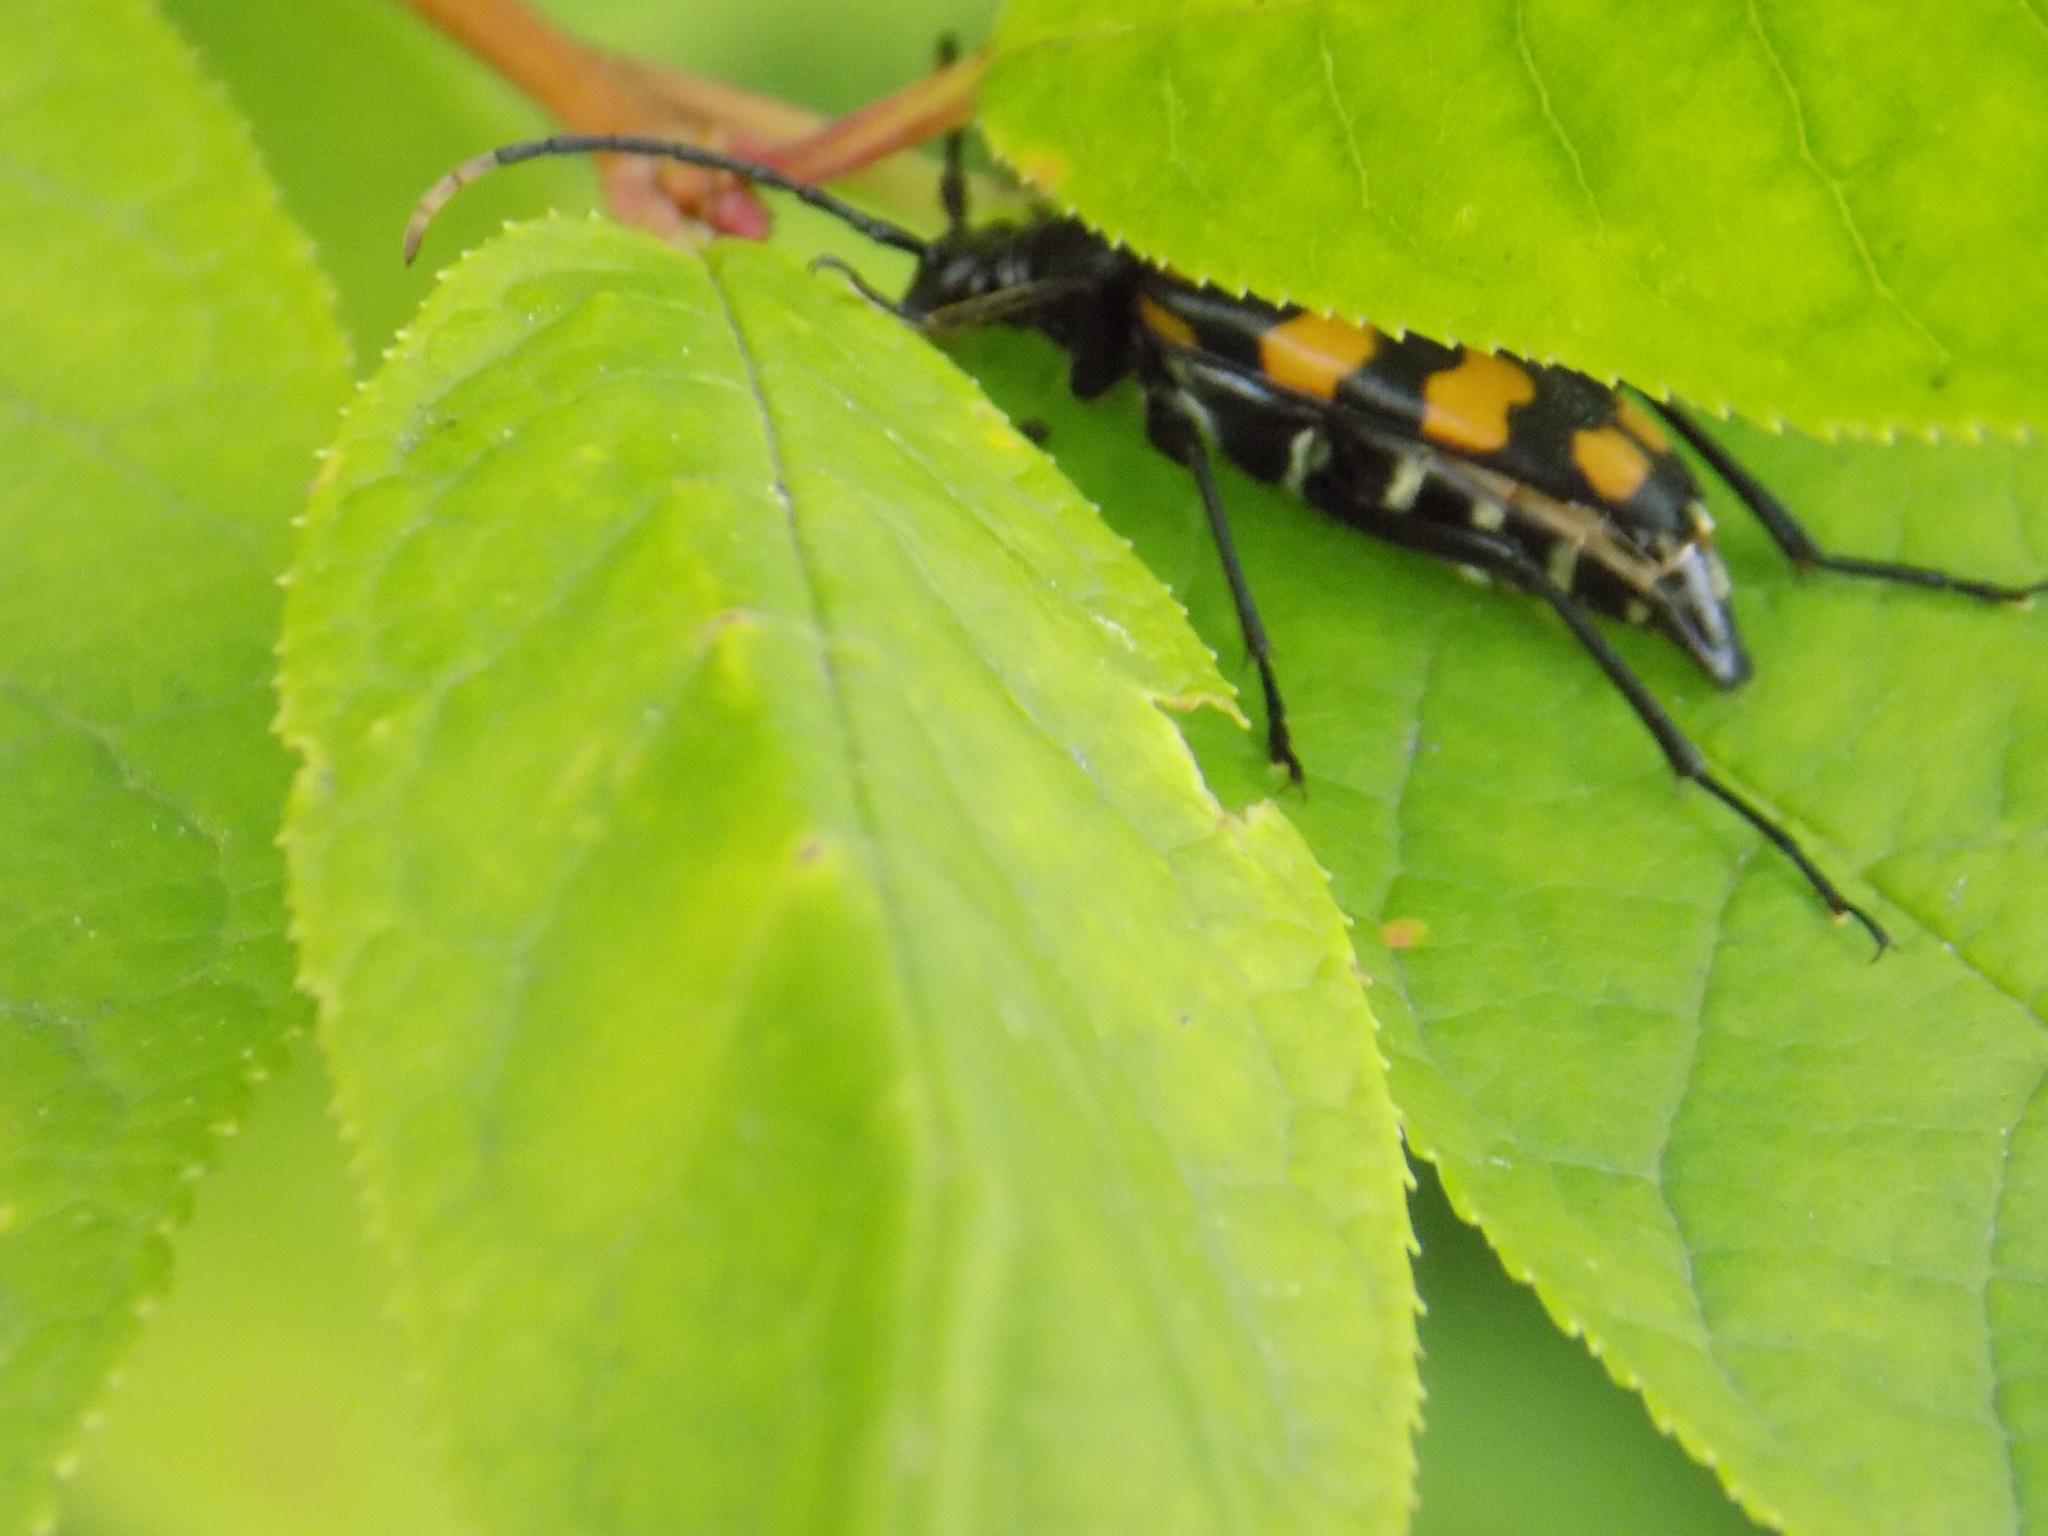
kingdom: Animalia
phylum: Arthropoda
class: Insecta
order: Coleoptera
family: Cerambycidae
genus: Leptura
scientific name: Leptura quadrifasciata
